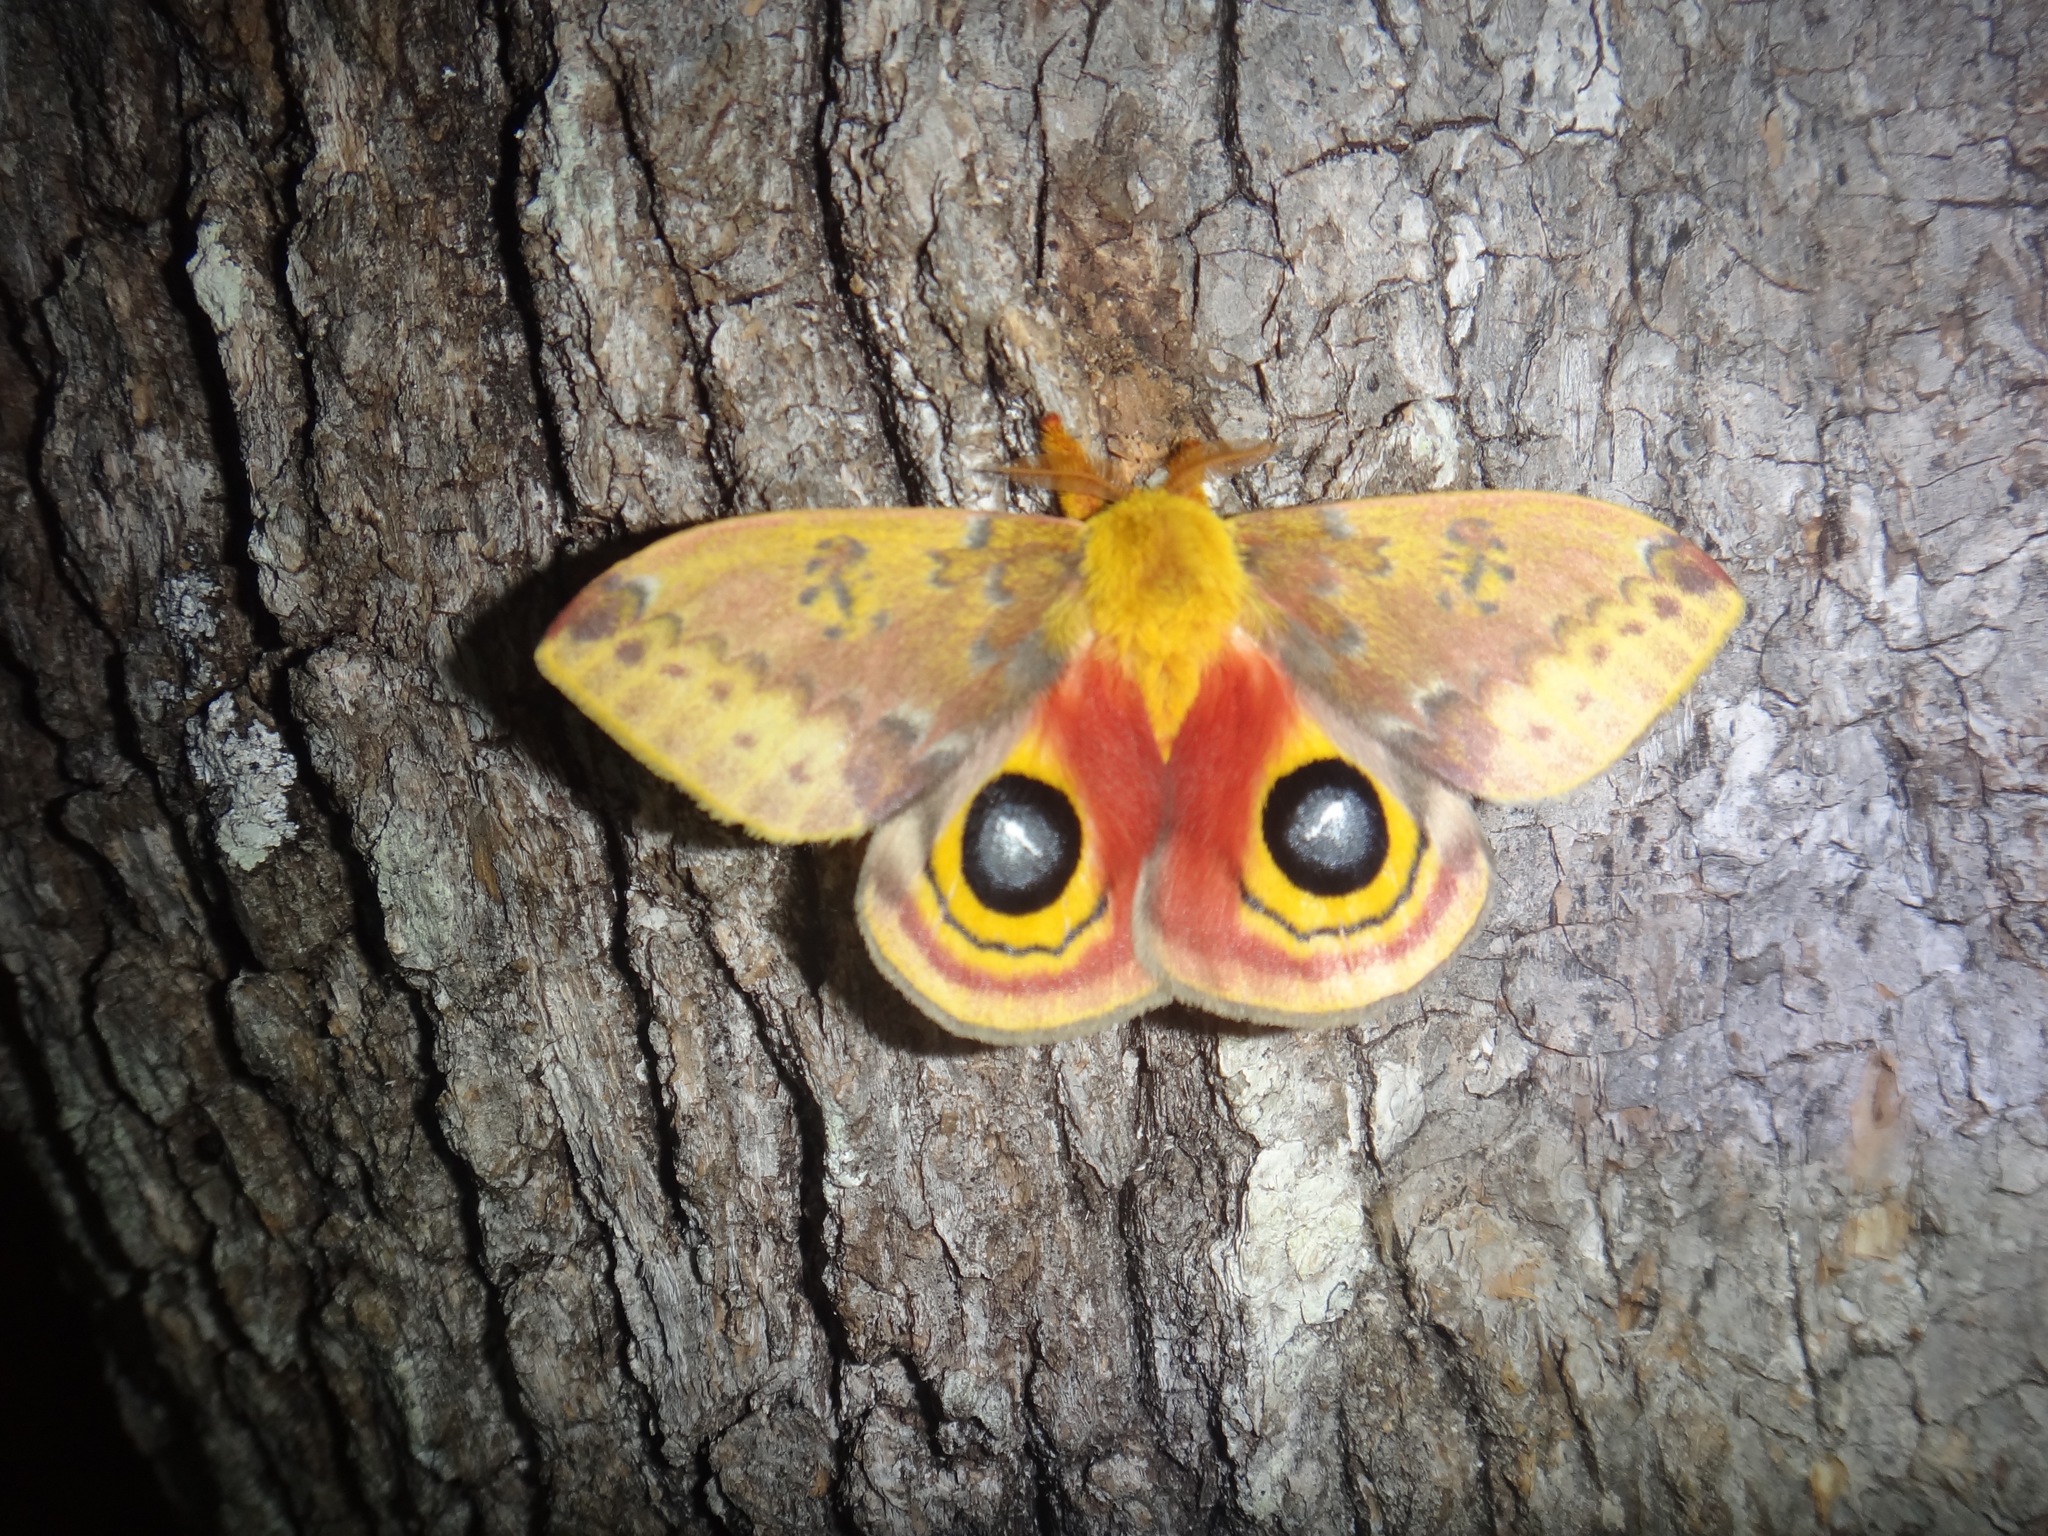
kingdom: Animalia
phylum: Arthropoda
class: Insecta
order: Lepidoptera
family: Saturniidae
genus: Automeris
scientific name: Automeris io
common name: Io moth
